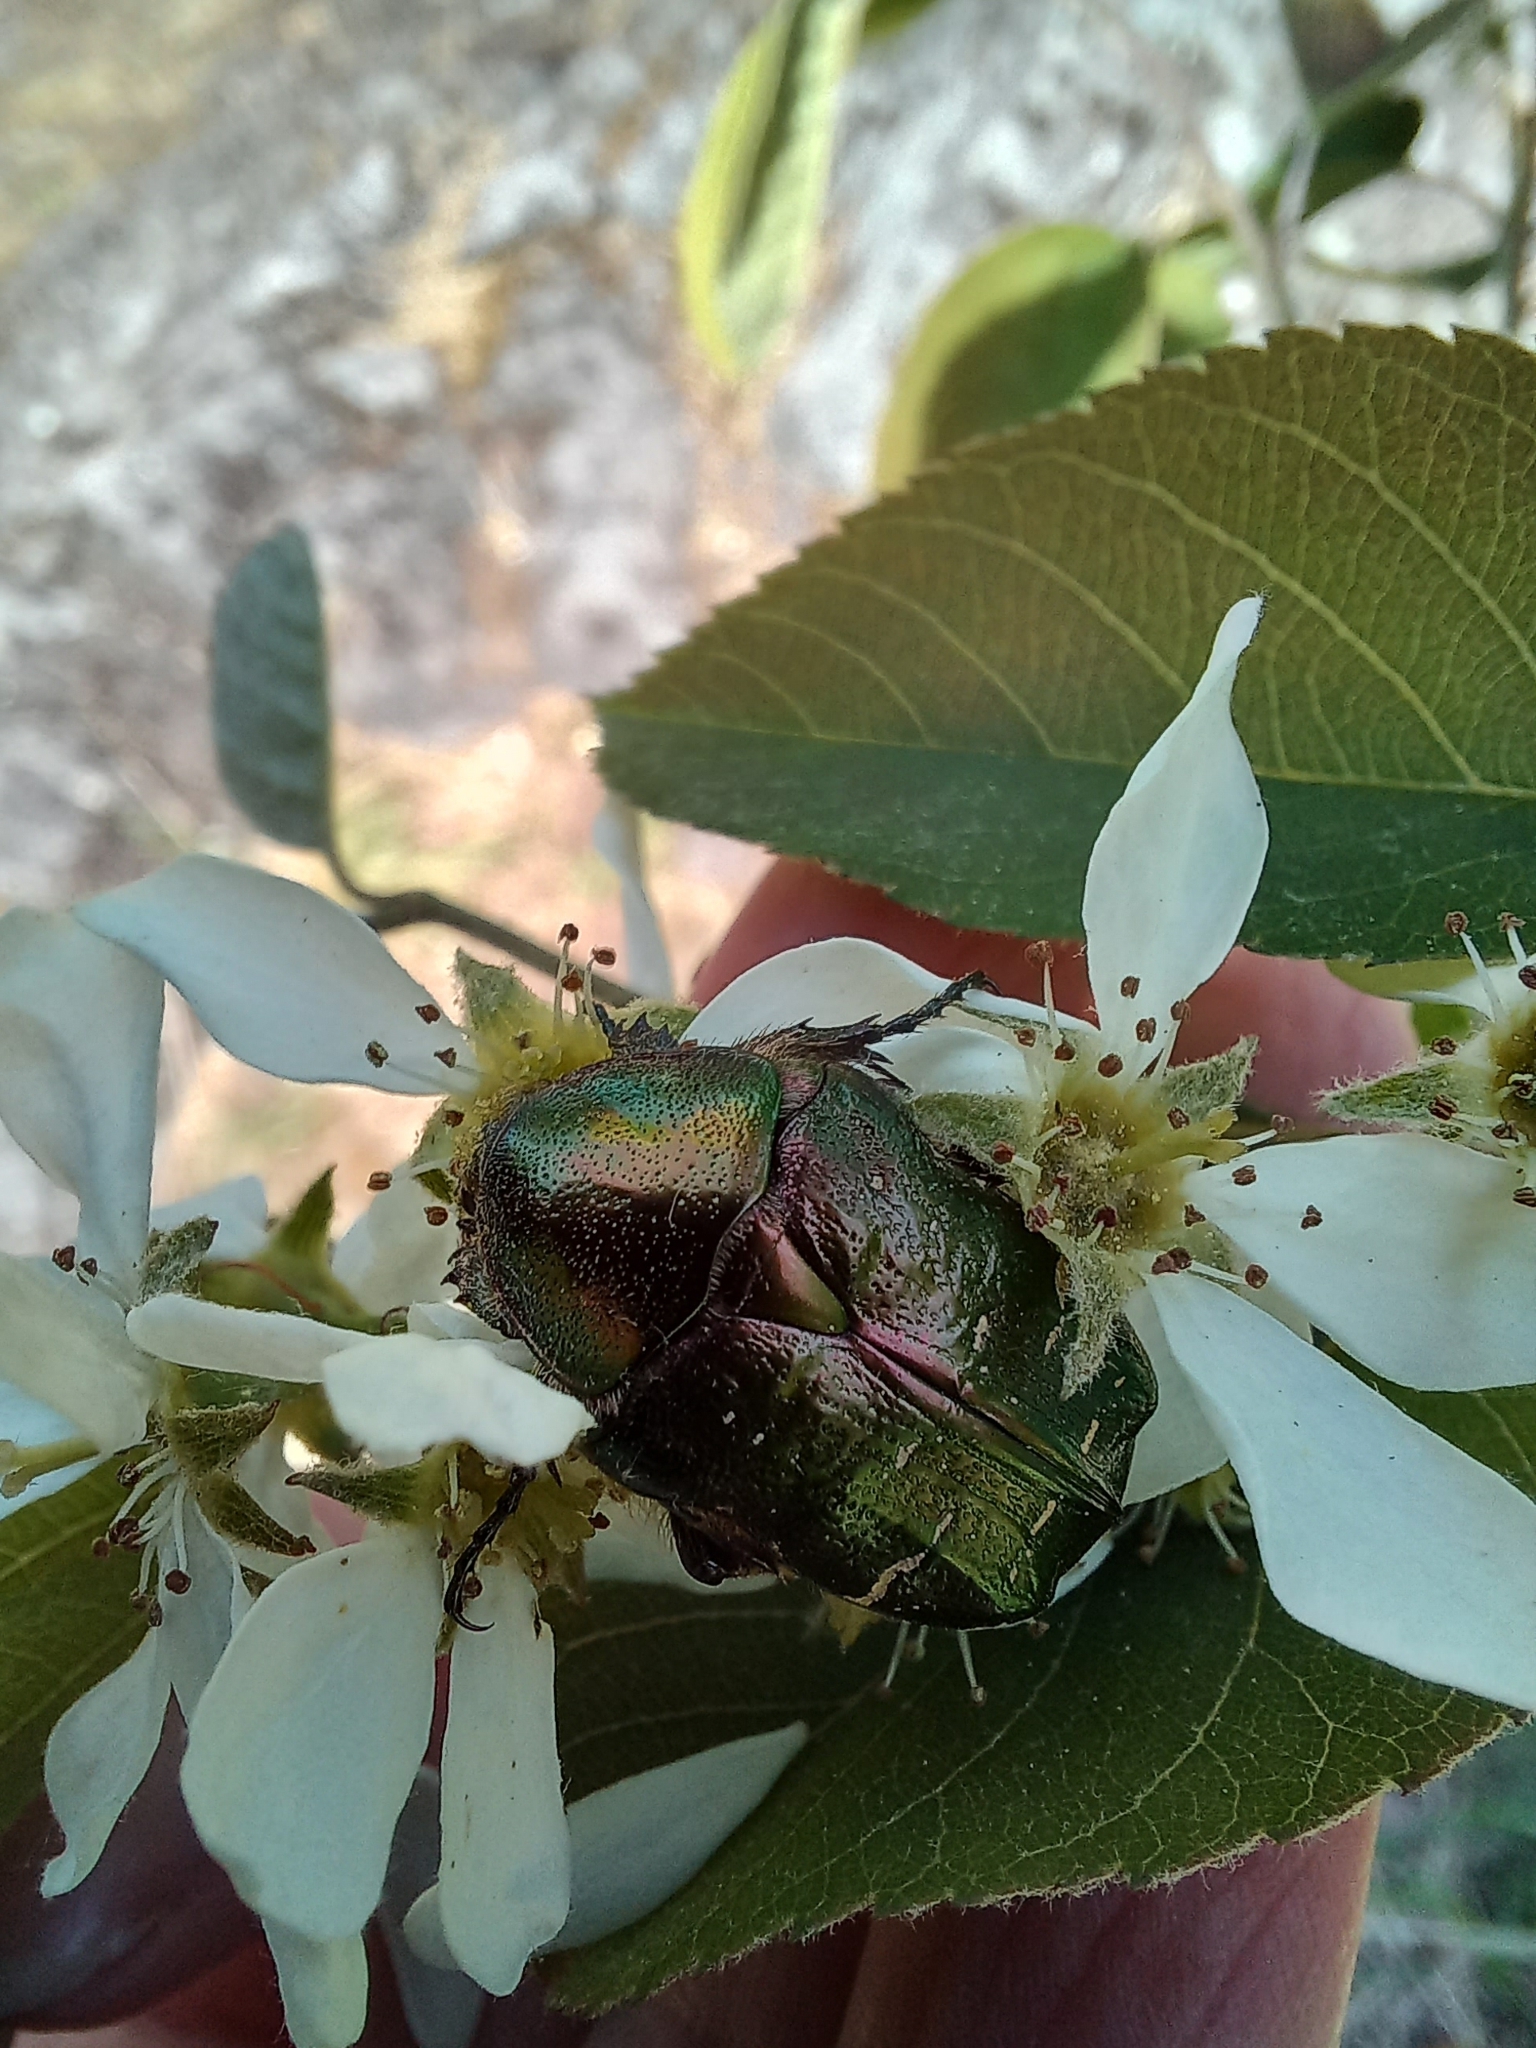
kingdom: Animalia
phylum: Arthropoda
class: Insecta
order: Coleoptera
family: Scarabaeidae
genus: Cetonia
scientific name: Cetonia aurata
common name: Rose chafer
